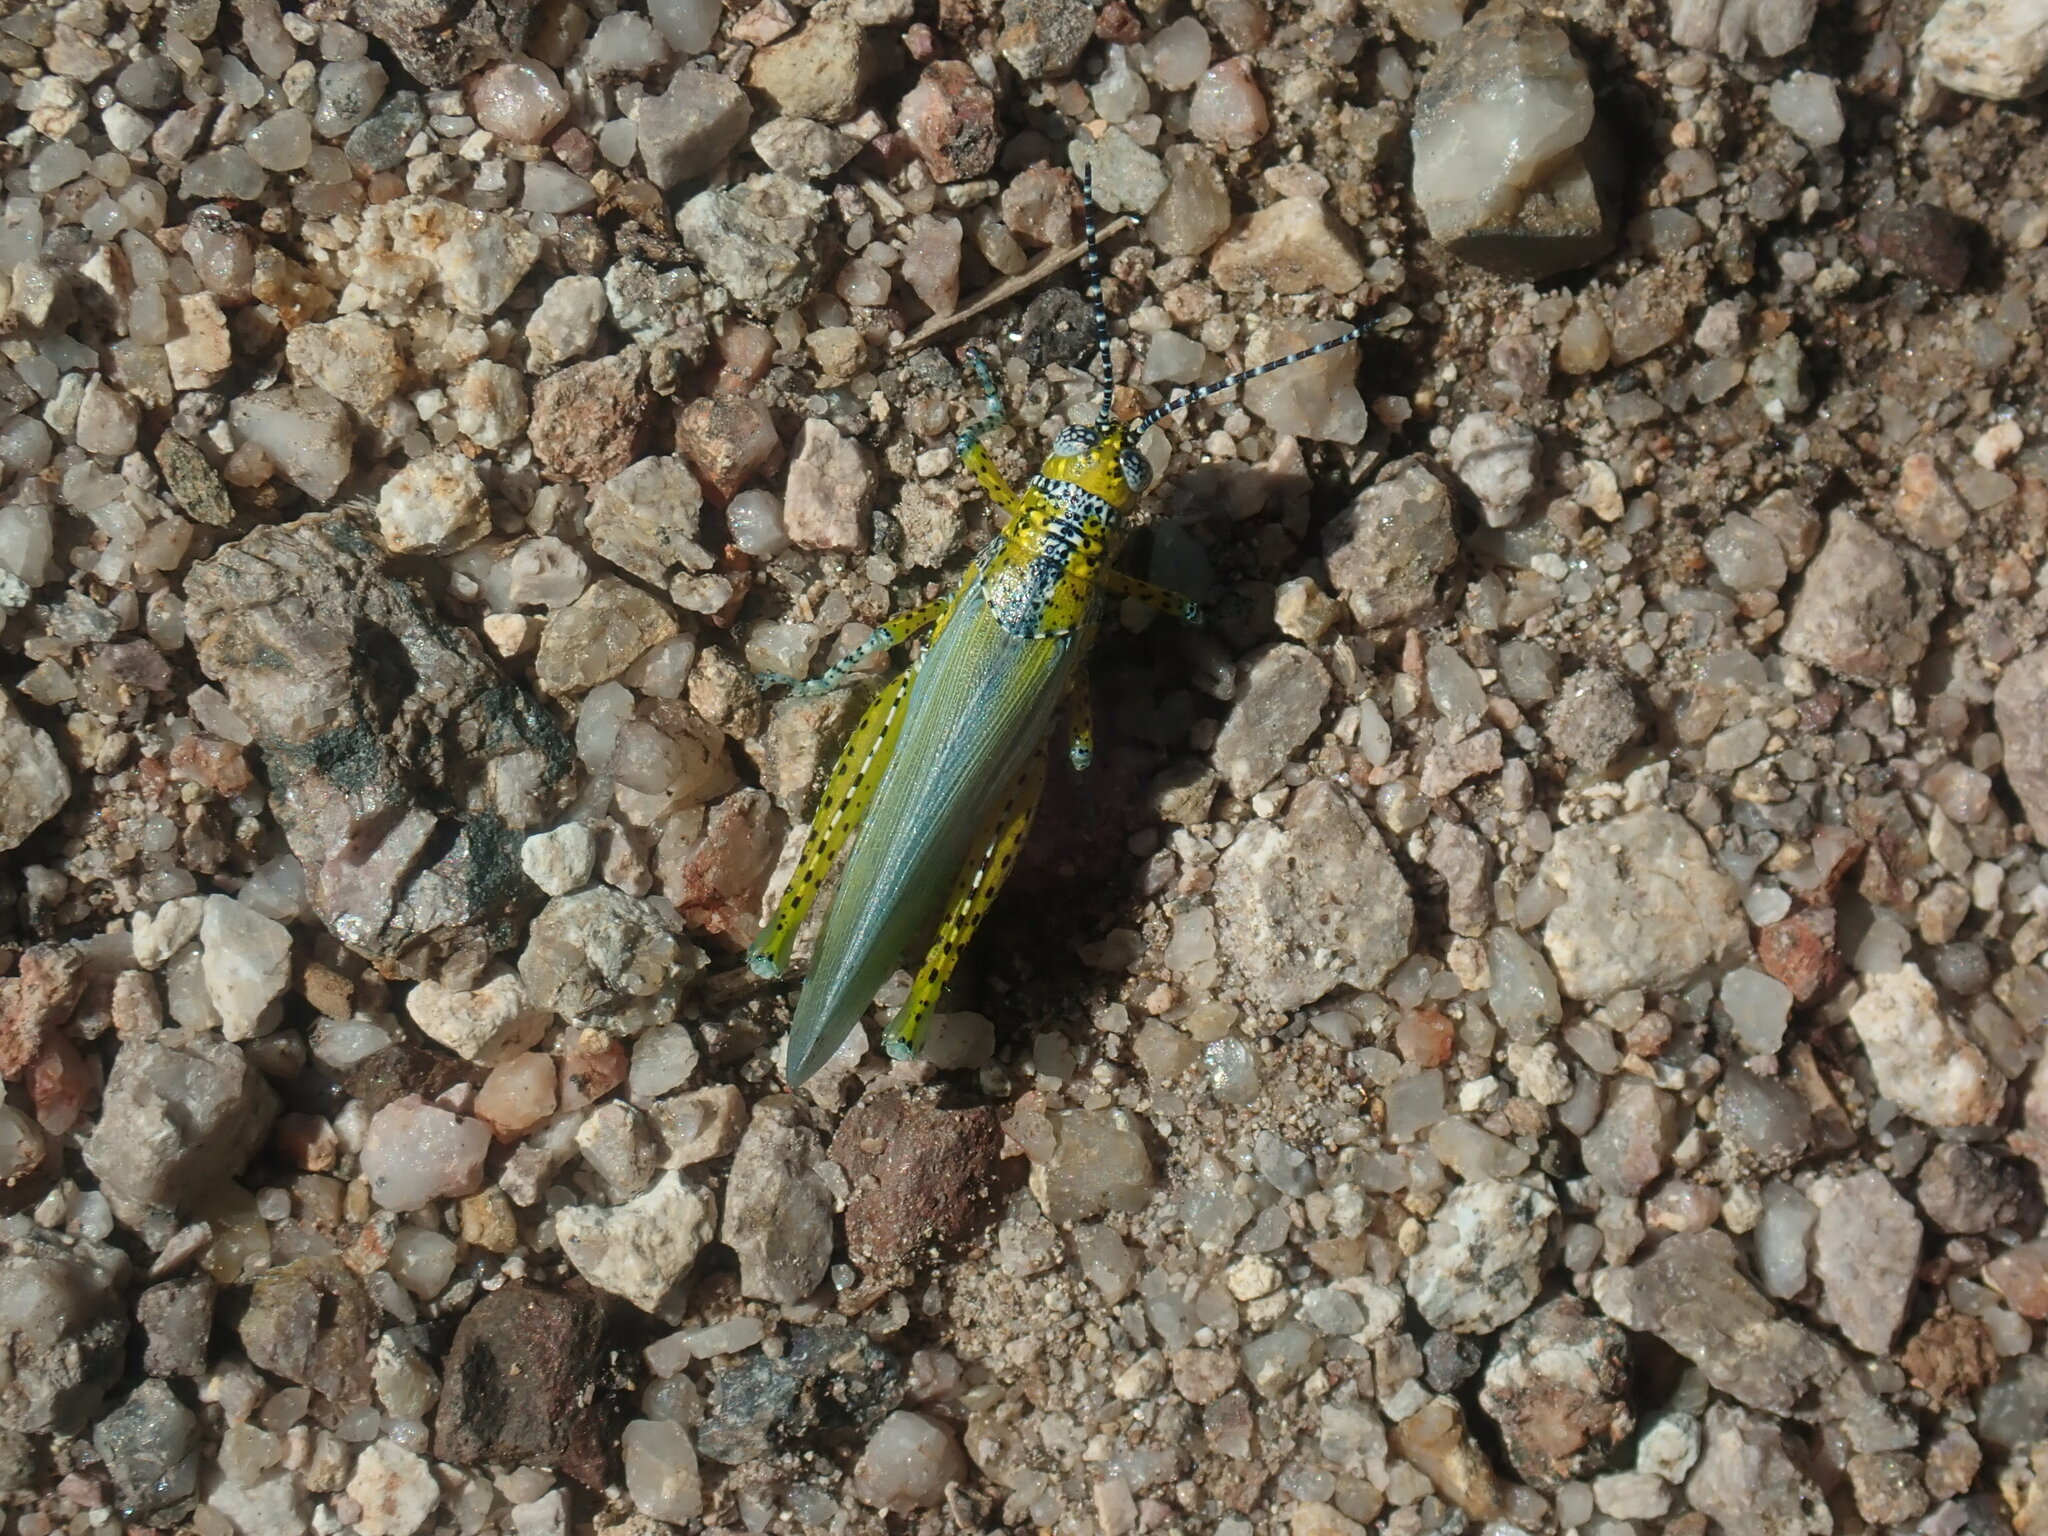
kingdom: Animalia
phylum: Arthropoda
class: Insecta
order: Orthoptera
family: Acrididae
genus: Poecilotettix
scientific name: Poecilotettix pantherinus
